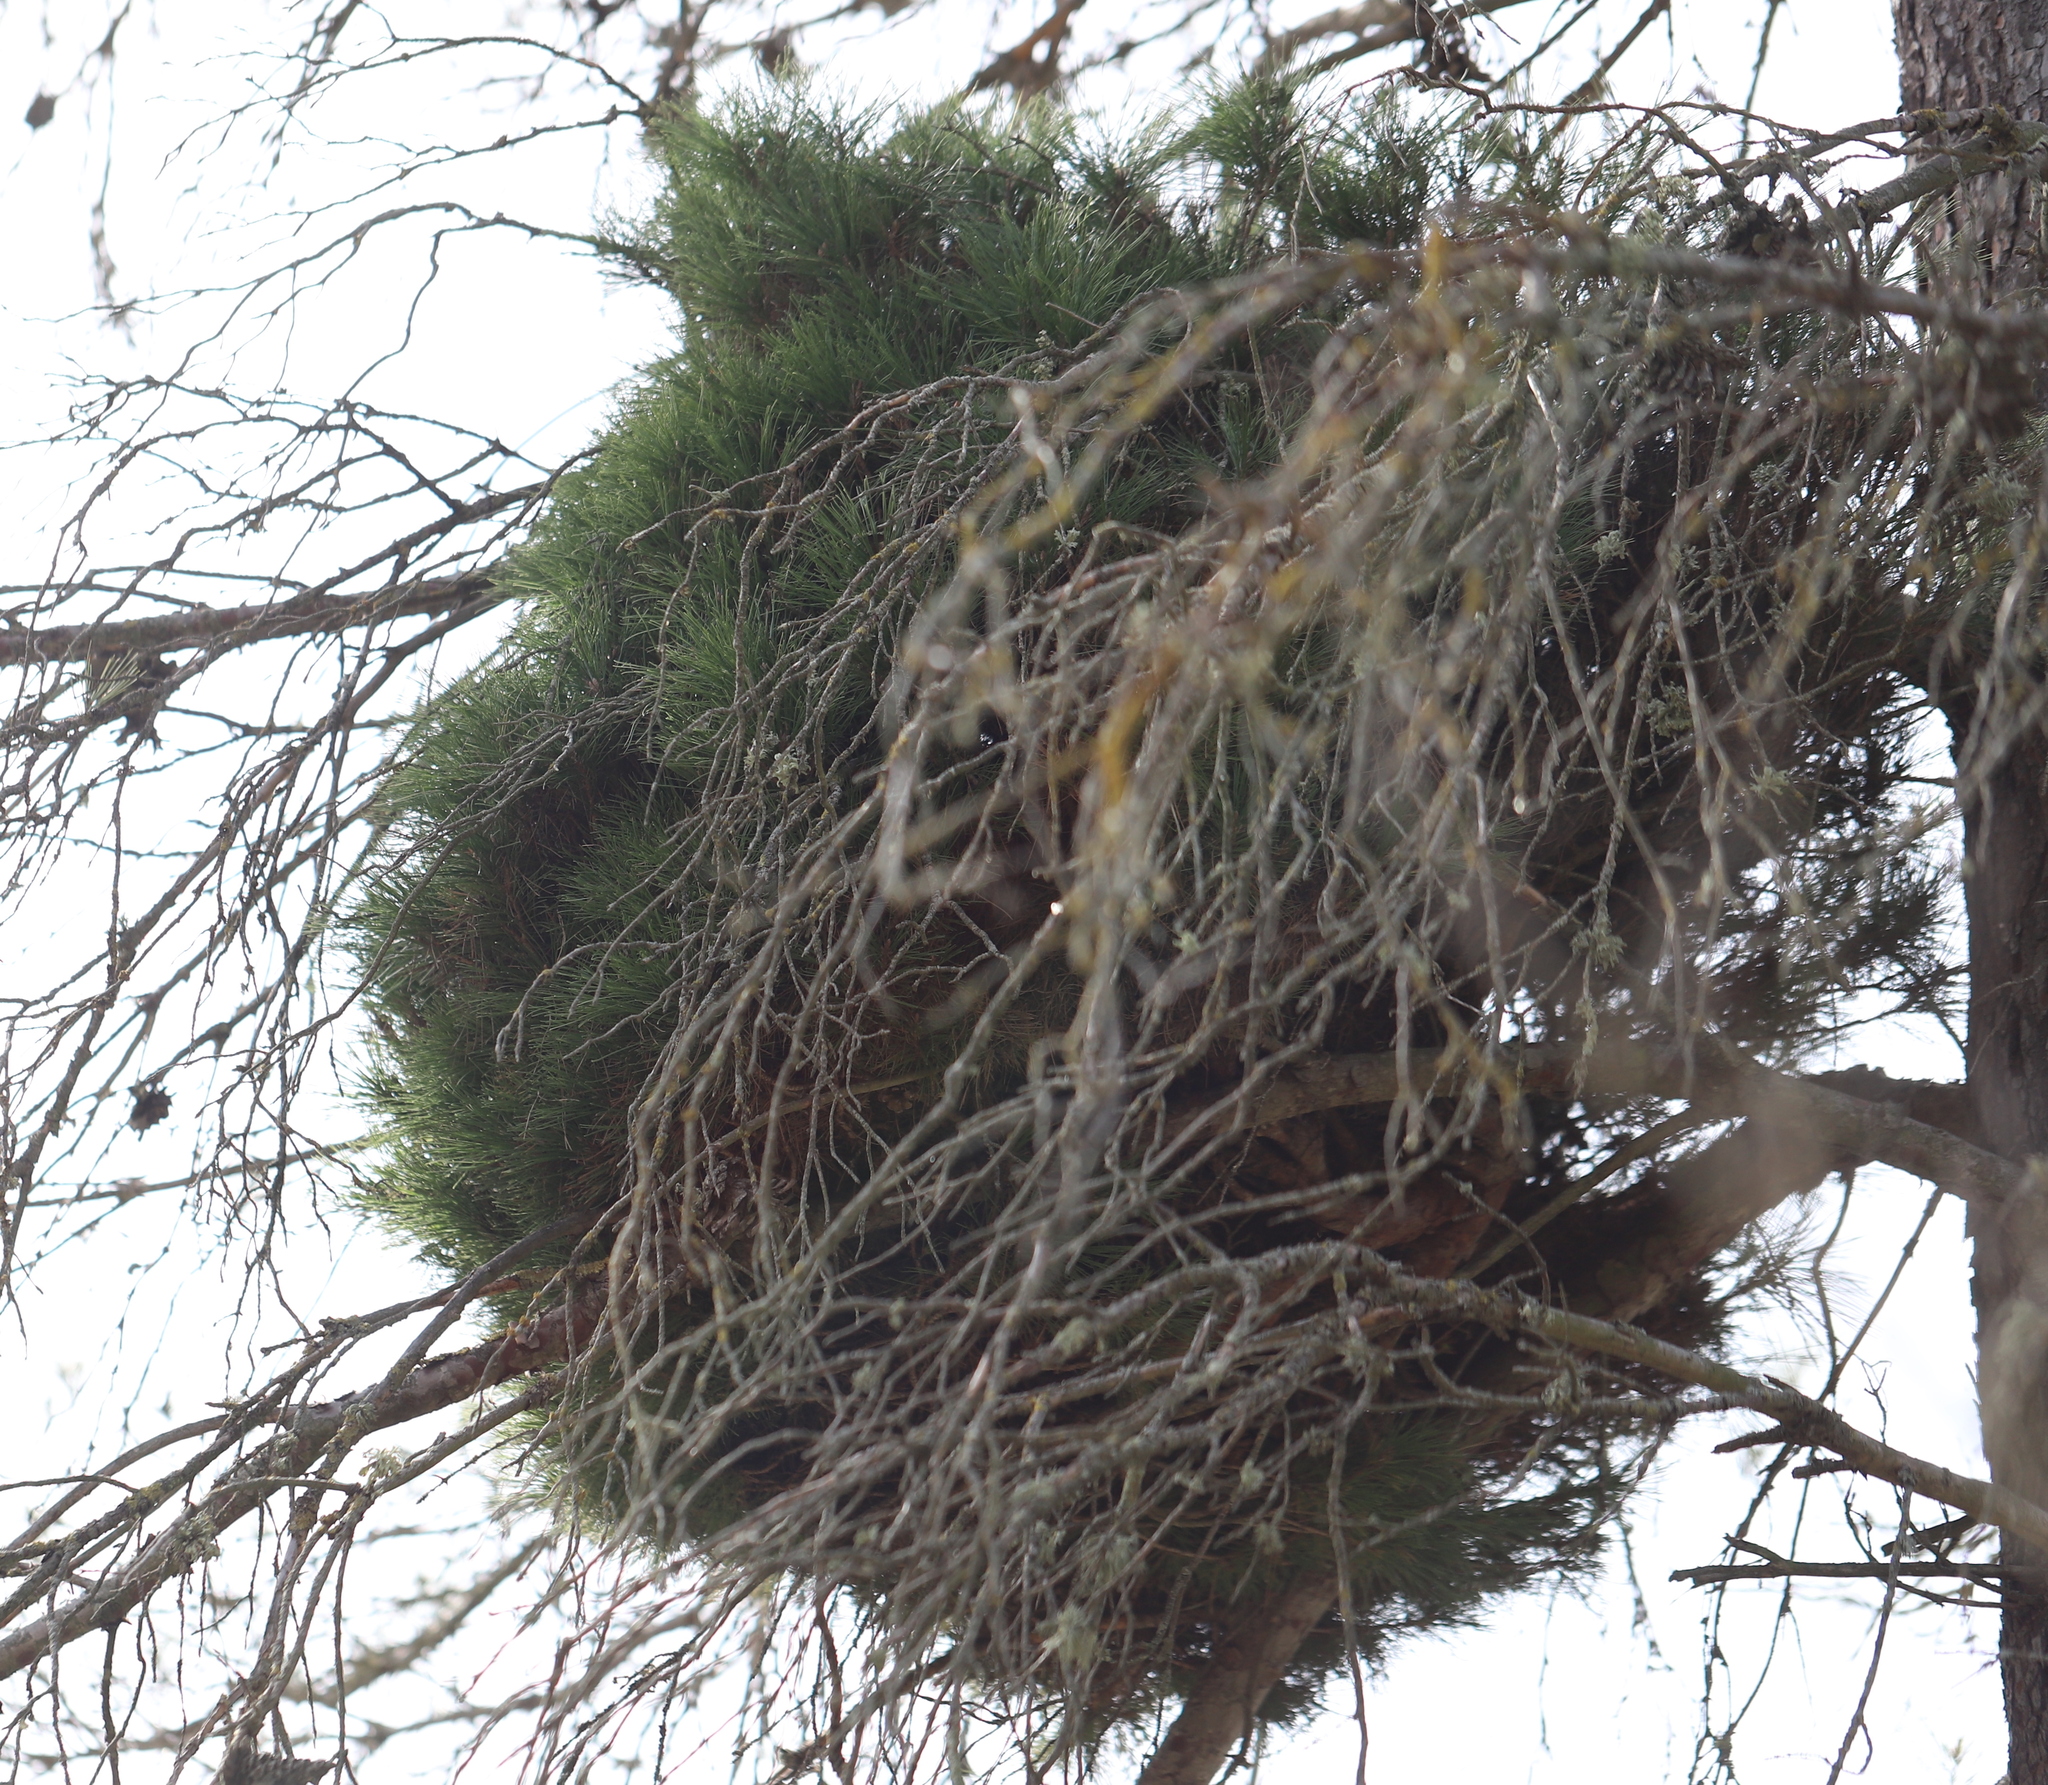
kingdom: Bacteria
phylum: Firmicutes
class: Bacilli
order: Acholeplasmatales
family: Acholeplasmataceae
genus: Phytoplasma
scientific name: Phytoplasma pini
